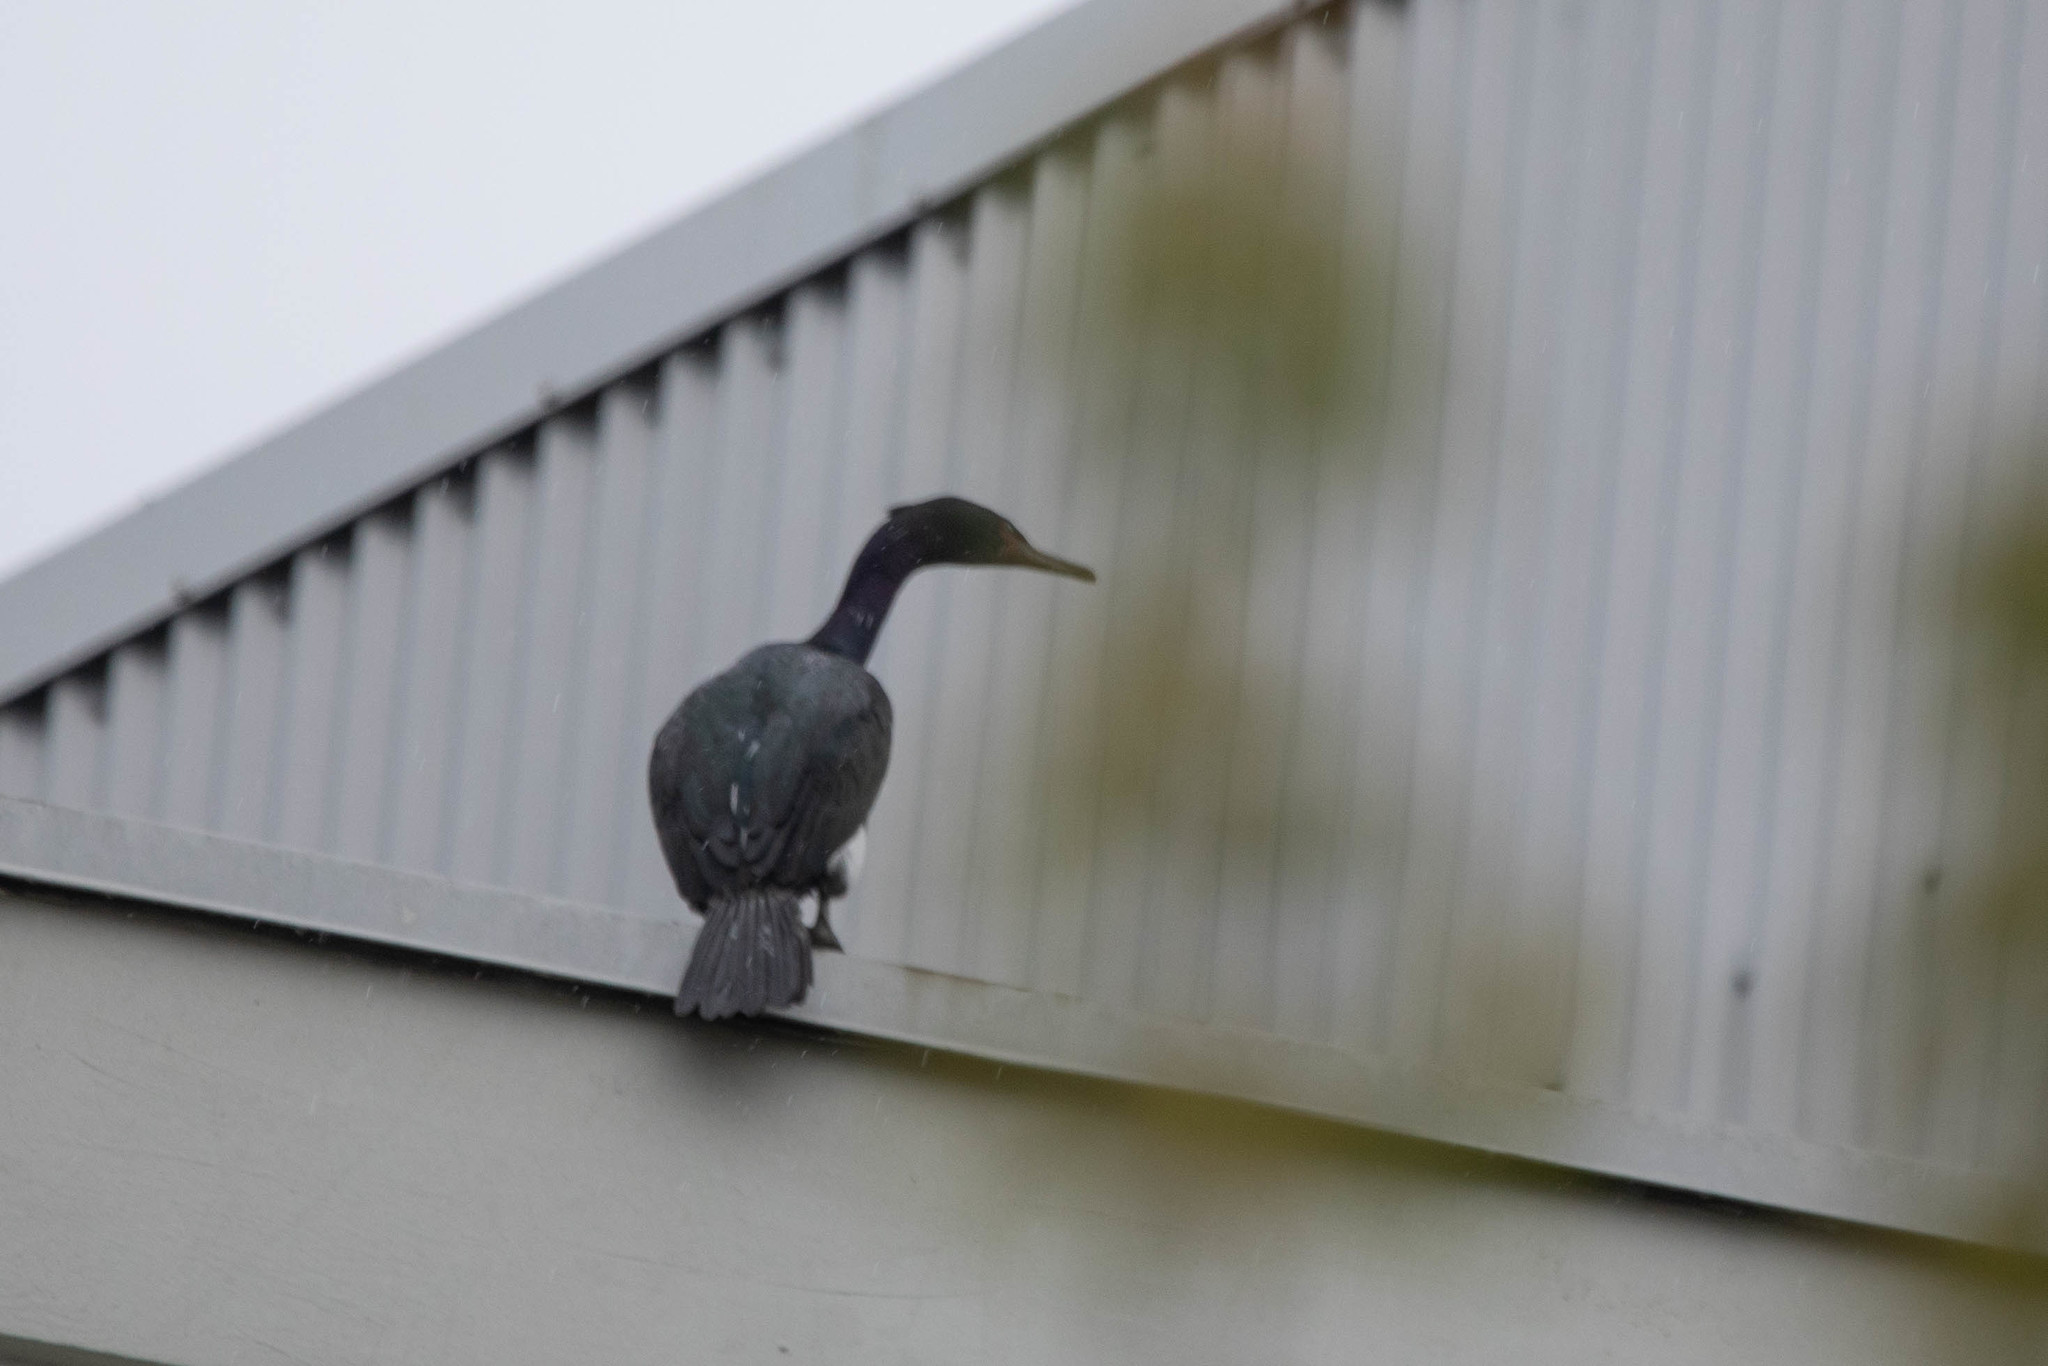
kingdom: Animalia
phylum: Chordata
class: Aves
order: Suliformes
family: Phalacrocoracidae
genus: Phalacrocorax
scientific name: Phalacrocorax pelagicus
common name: Pelagic cormorant
